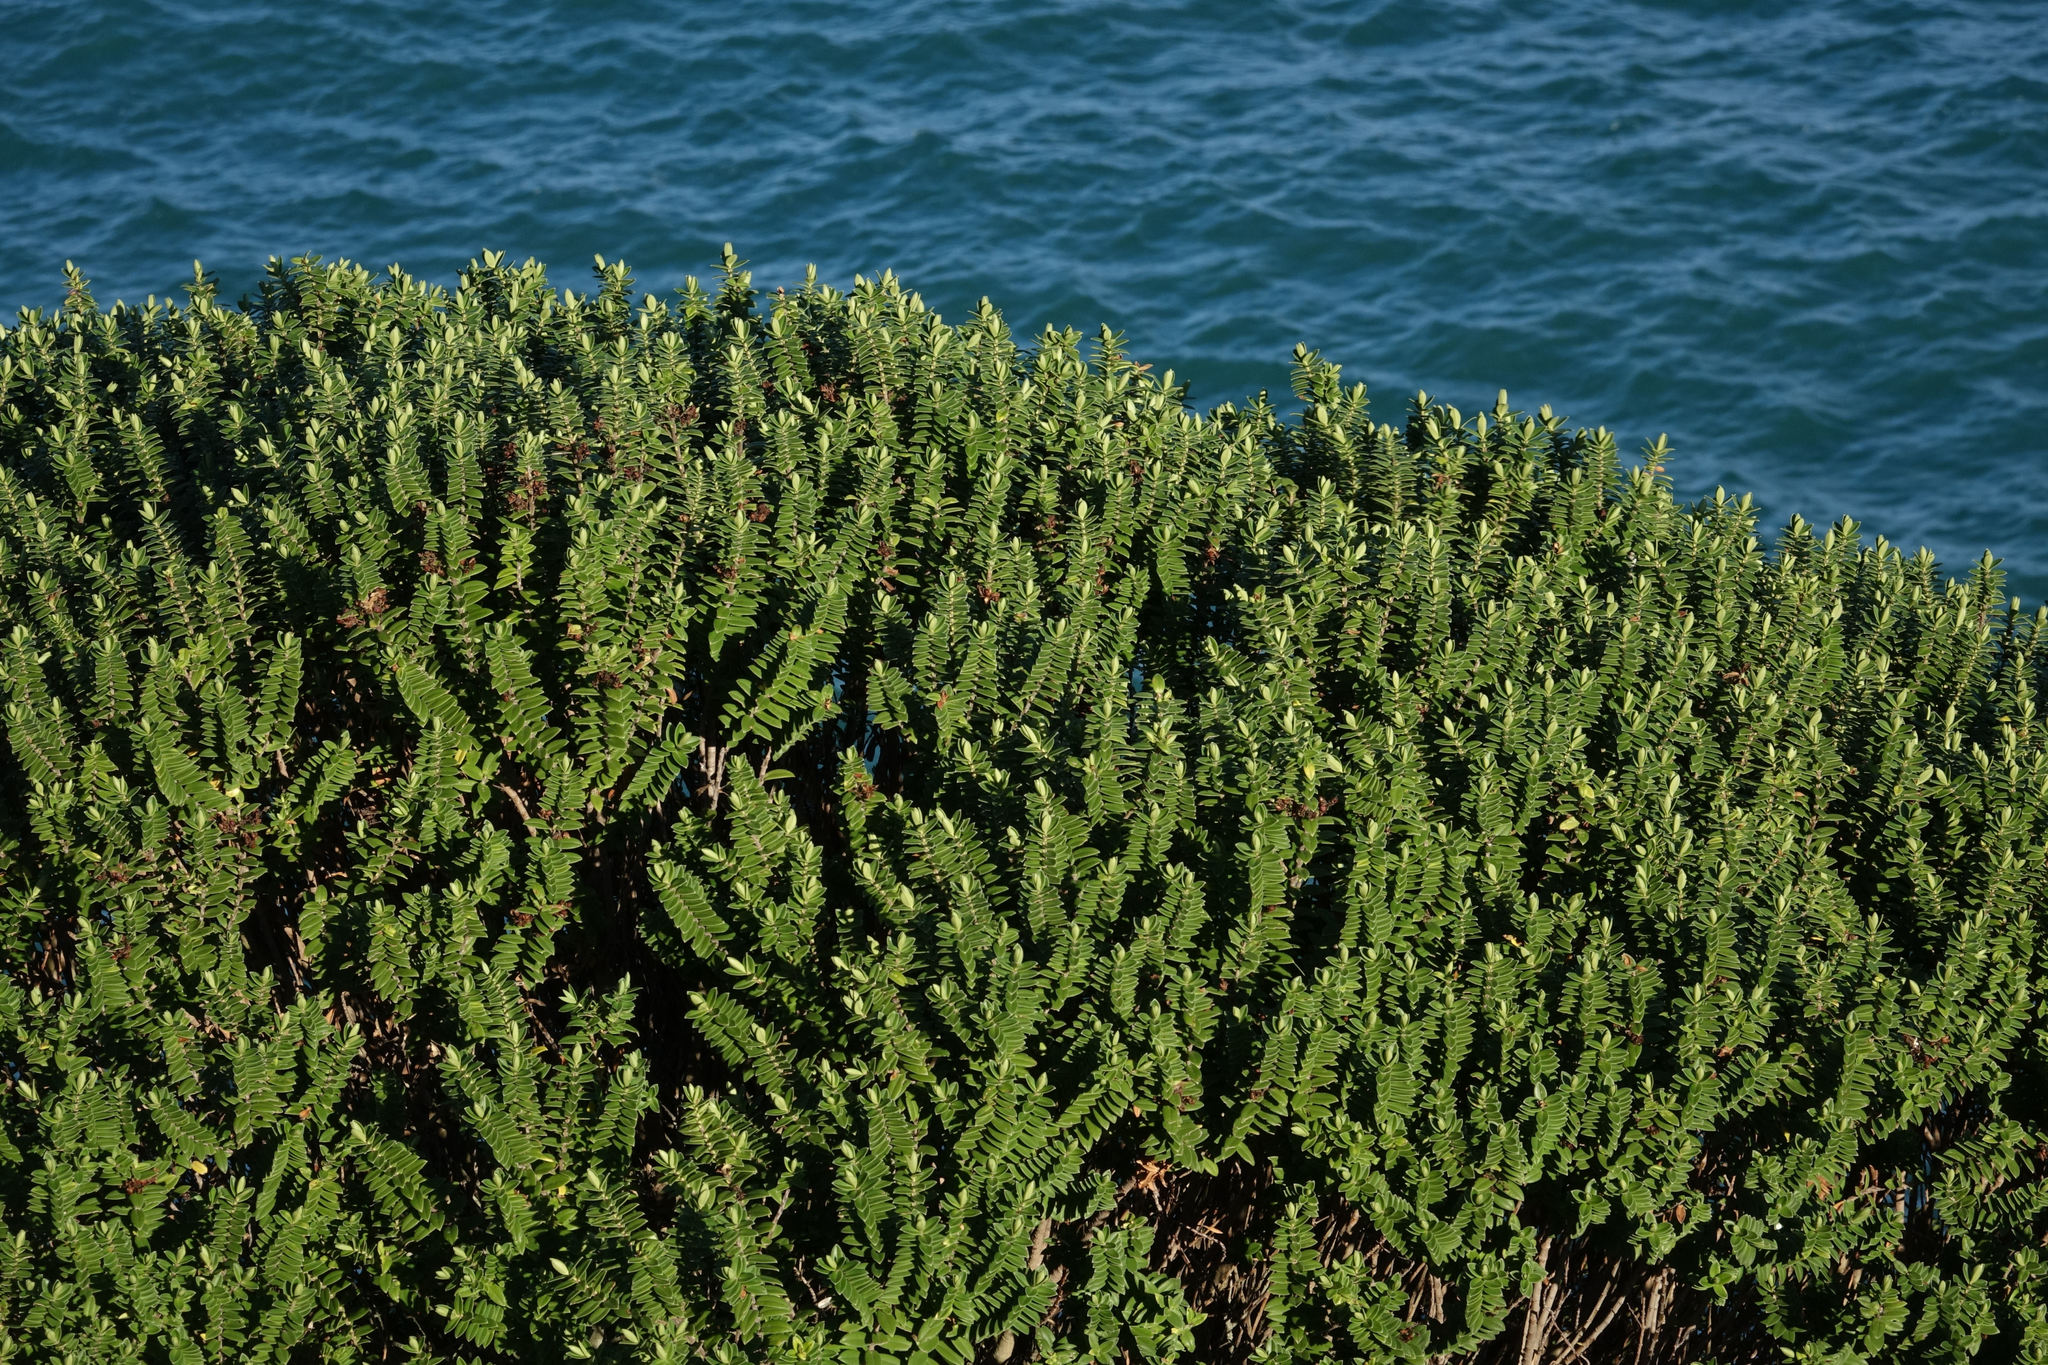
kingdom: Plantae
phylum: Tracheophyta
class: Magnoliopsida
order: Lamiales
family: Plantaginaceae
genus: Veronica
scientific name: Veronica elliptica
